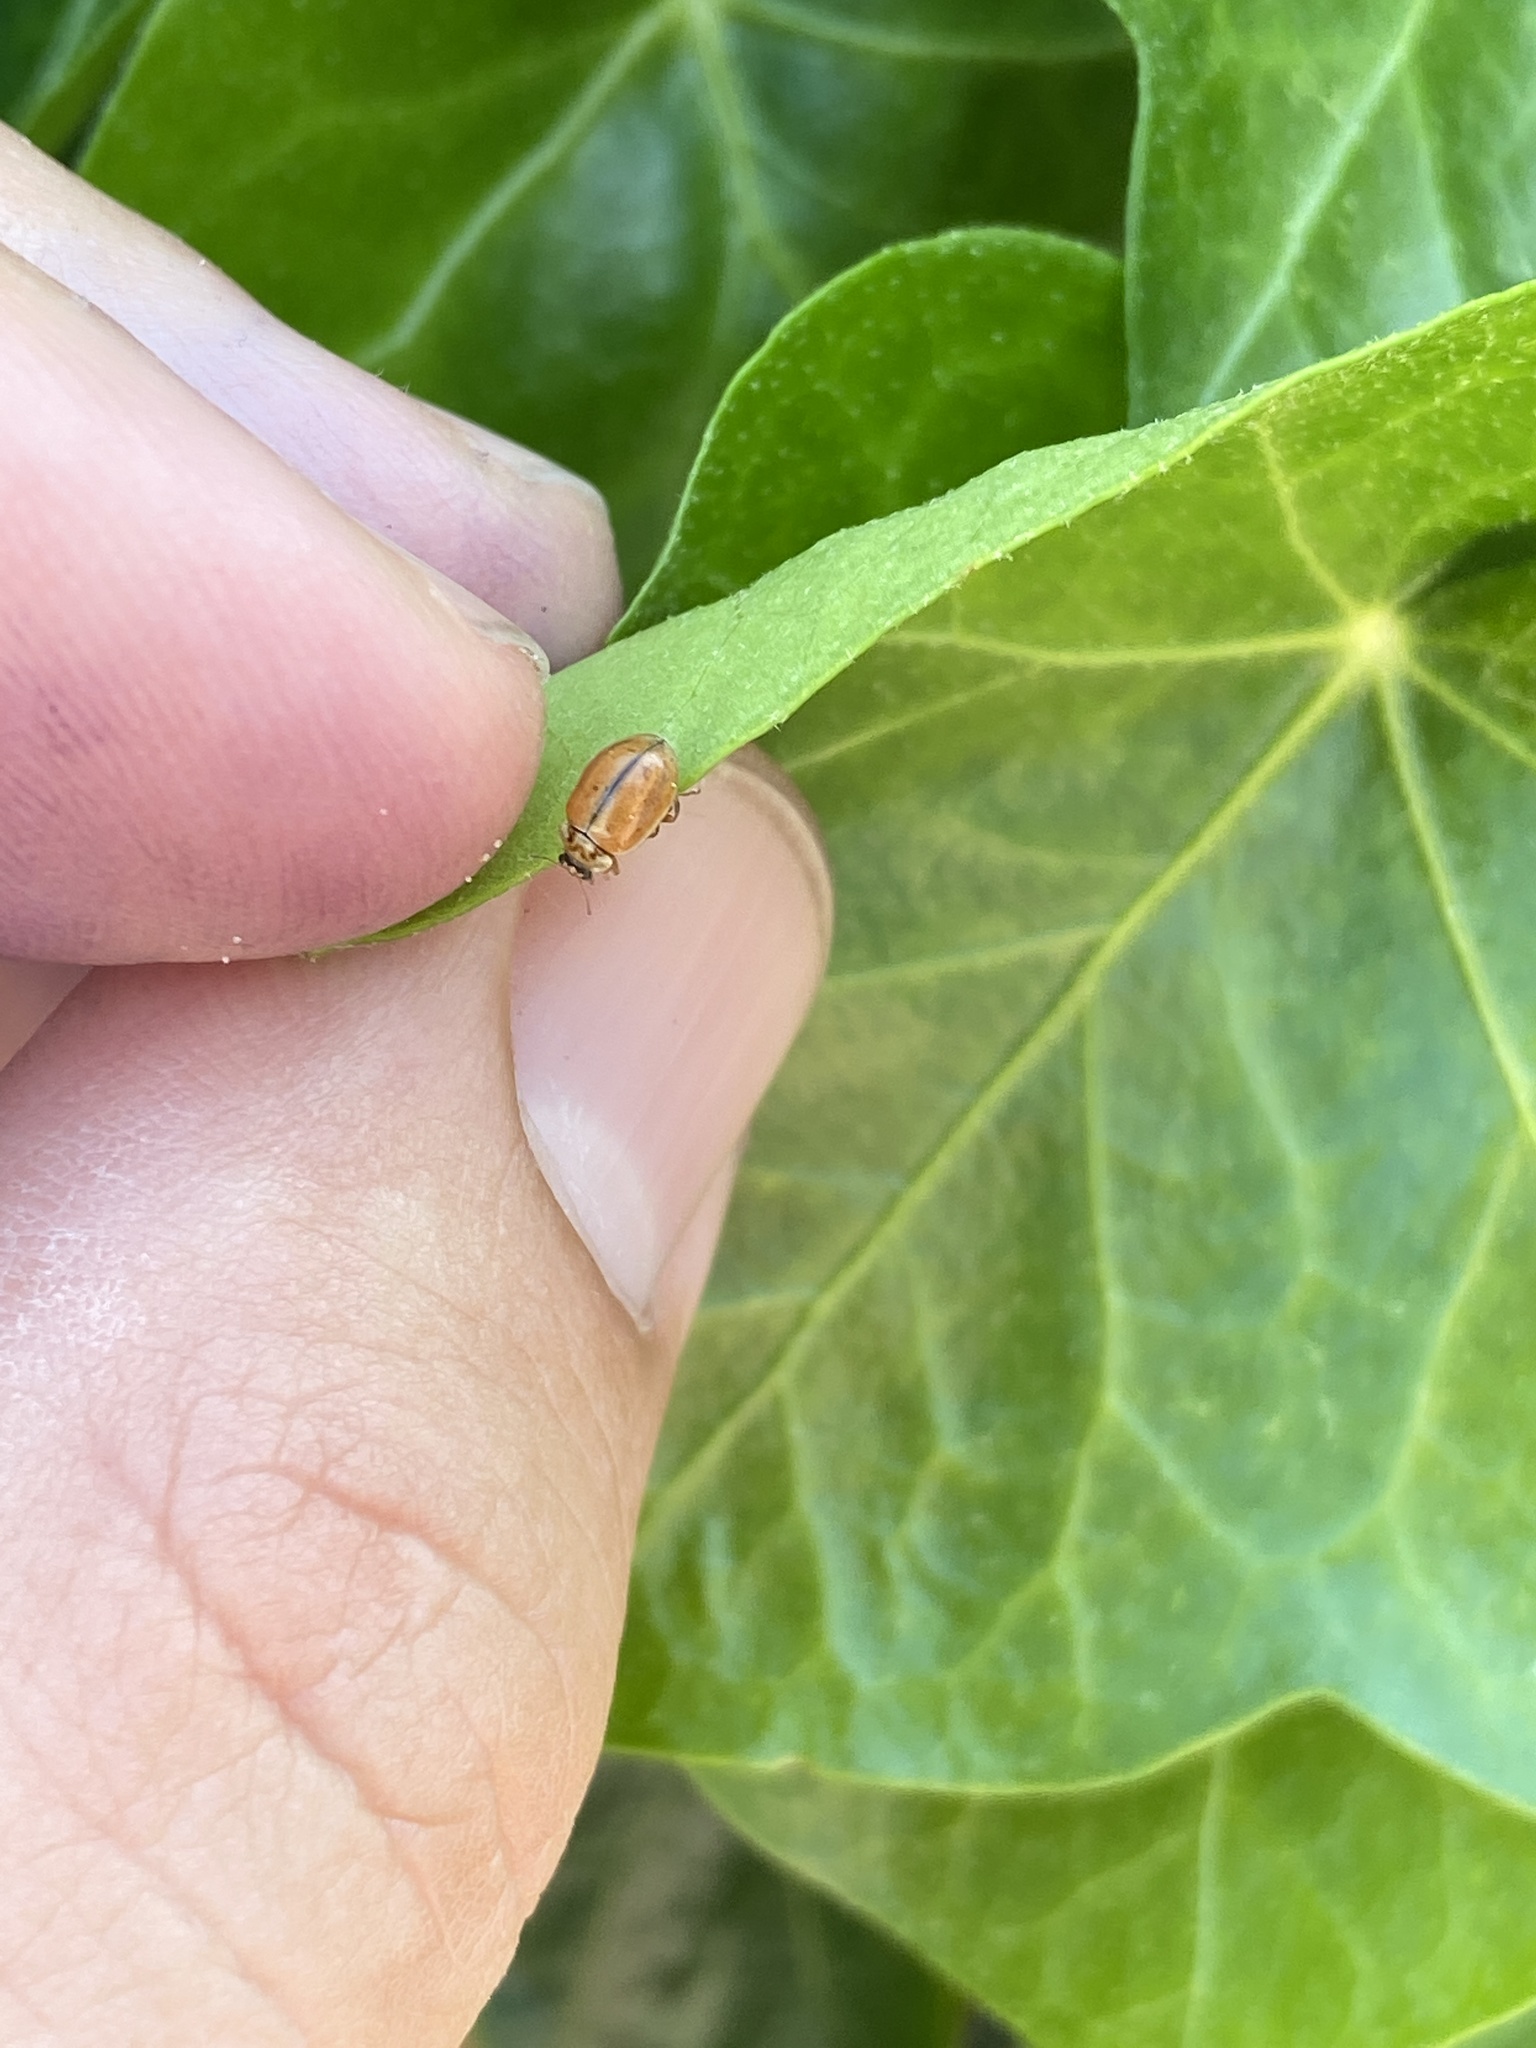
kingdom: Animalia
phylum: Arthropoda
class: Insecta
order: Coleoptera
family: Coccinellidae
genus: Aphidecta
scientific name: Aphidecta obliterata
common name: Larch ladybird
